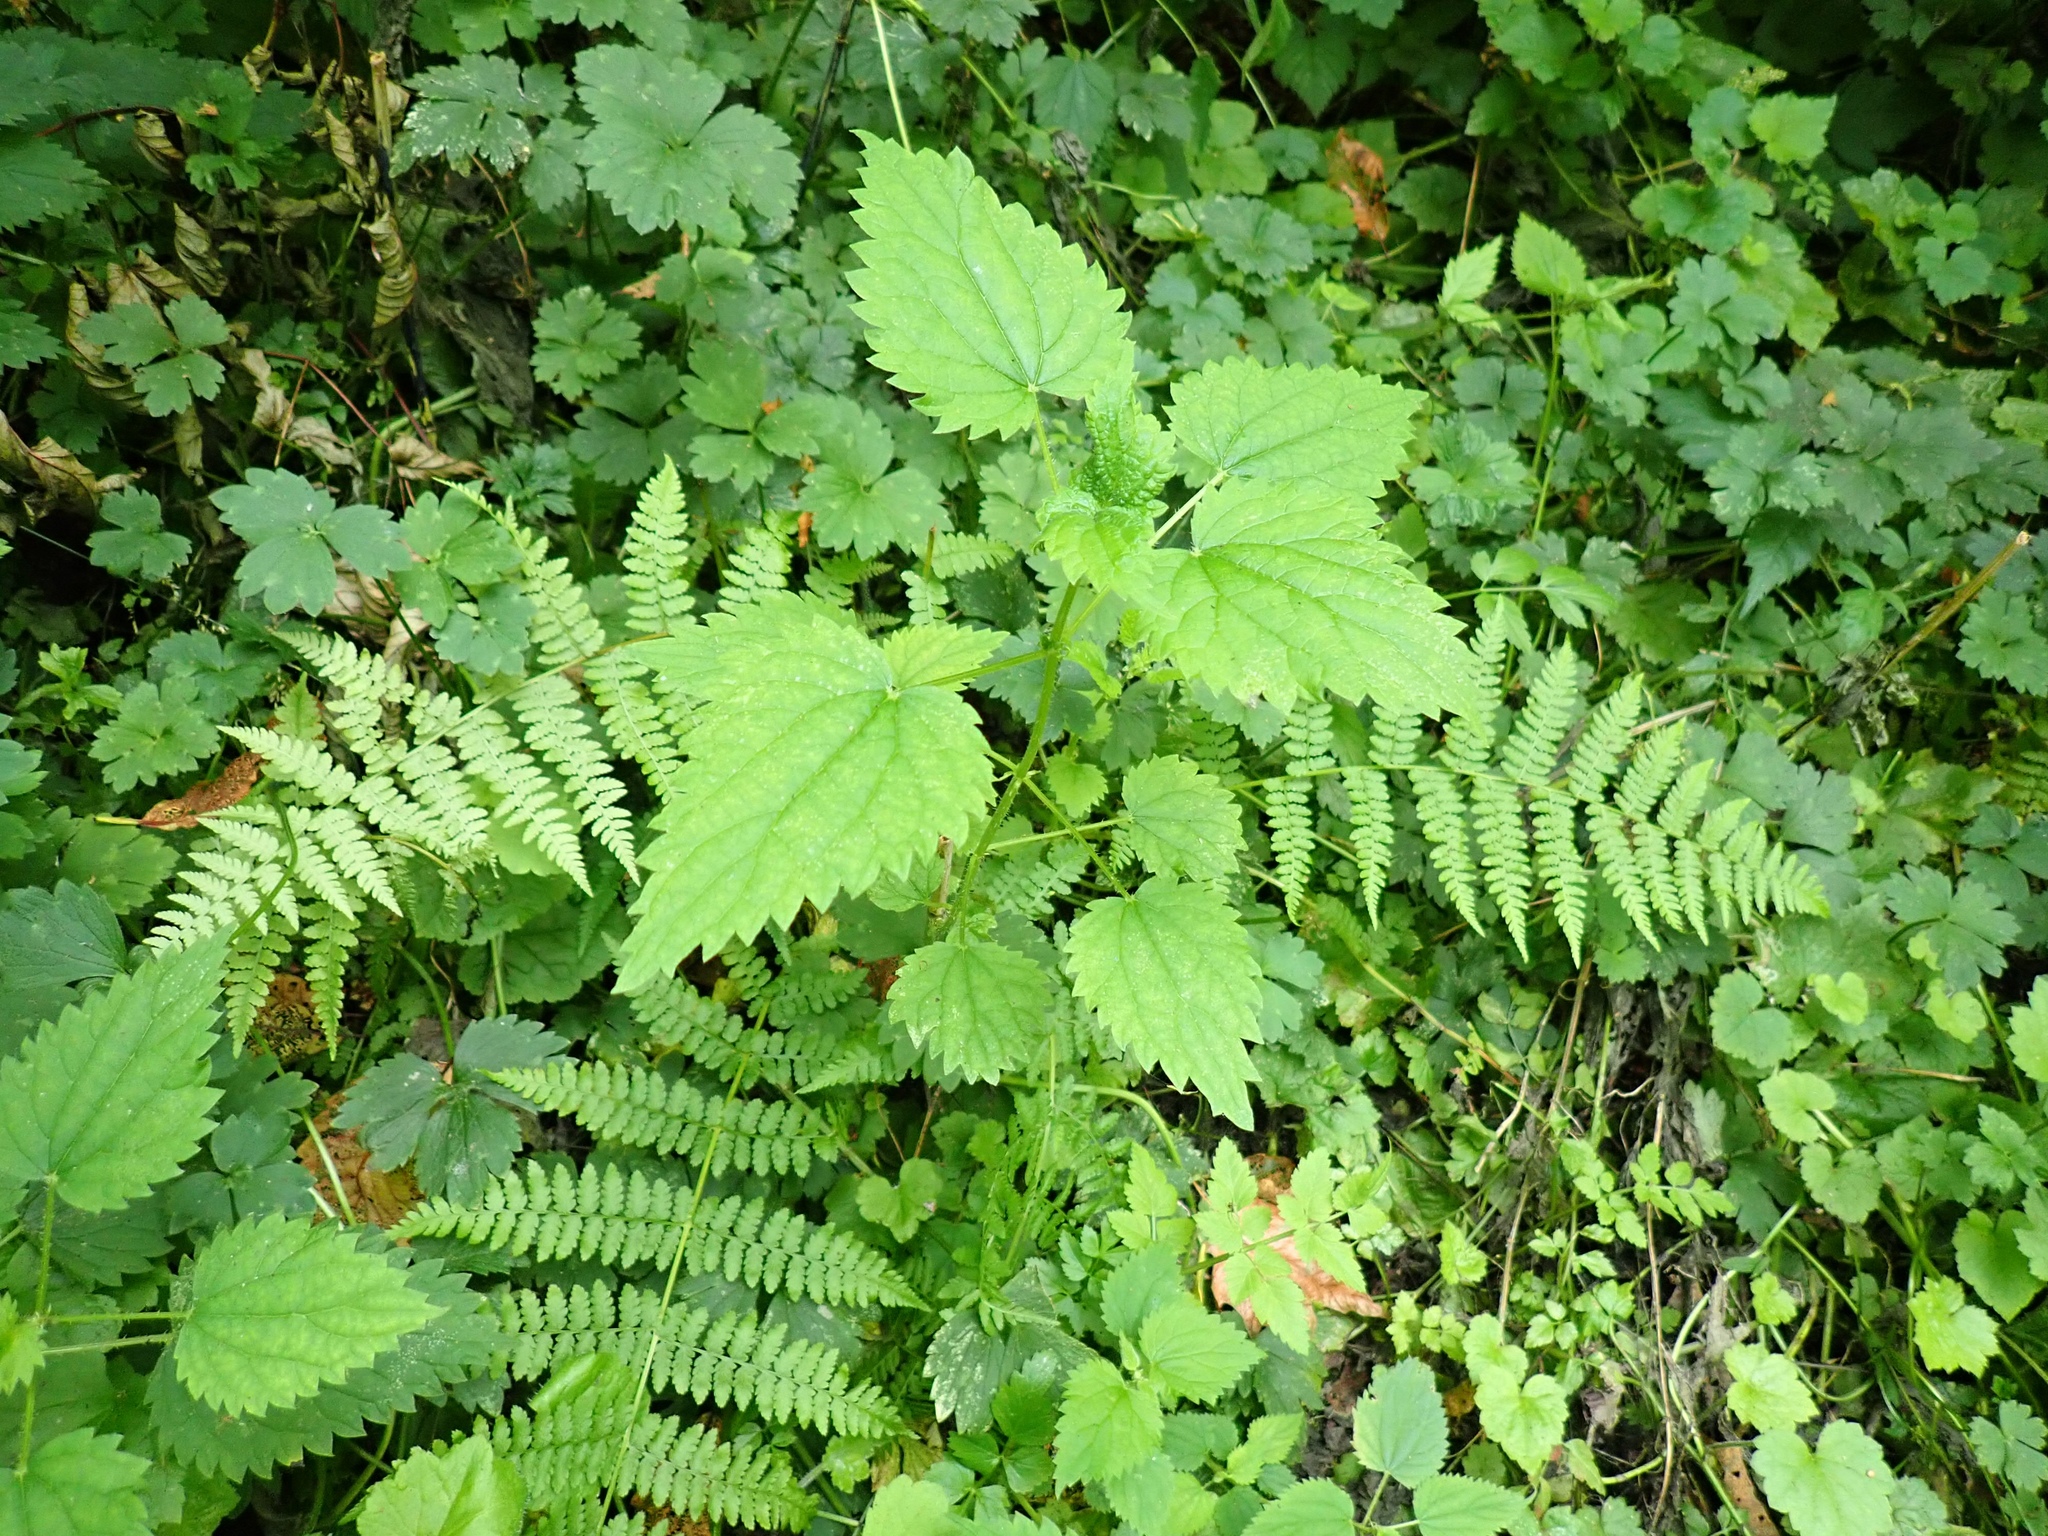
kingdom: Plantae
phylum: Tracheophyta
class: Magnoliopsida
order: Rosales
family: Urticaceae
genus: Urtica
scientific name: Urtica gracilis
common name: Slender stinging nettle
